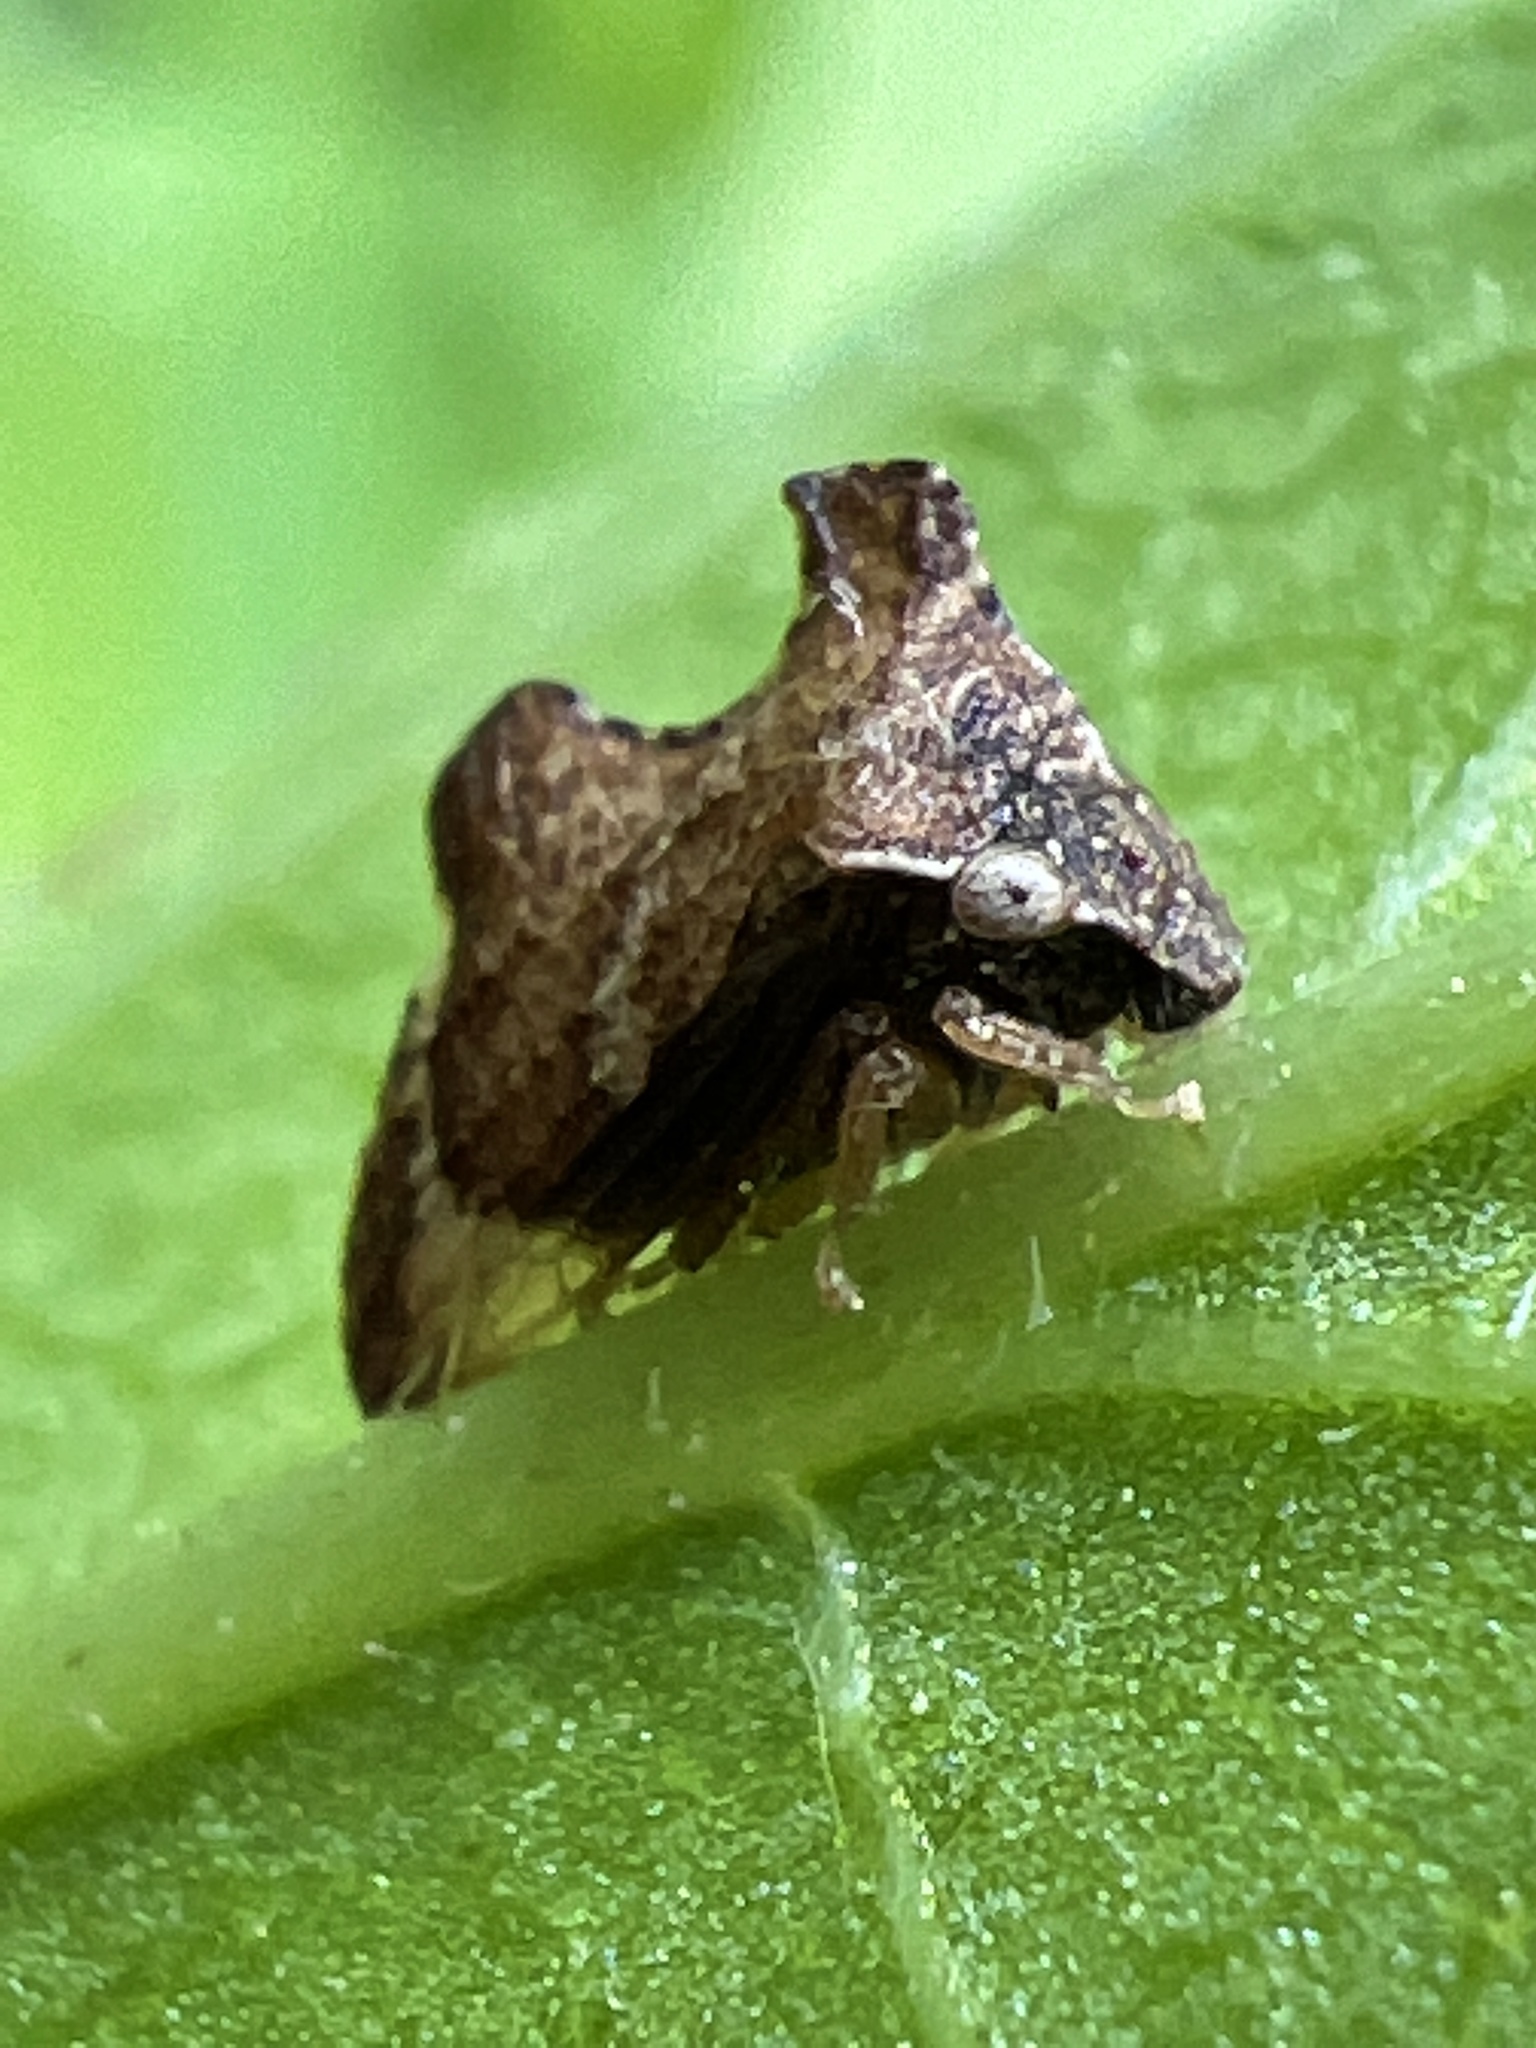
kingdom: Animalia
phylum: Arthropoda
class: Insecta
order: Hemiptera
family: Membracidae
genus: Entylia
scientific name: Entylia carinata
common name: Keeled treehopper
